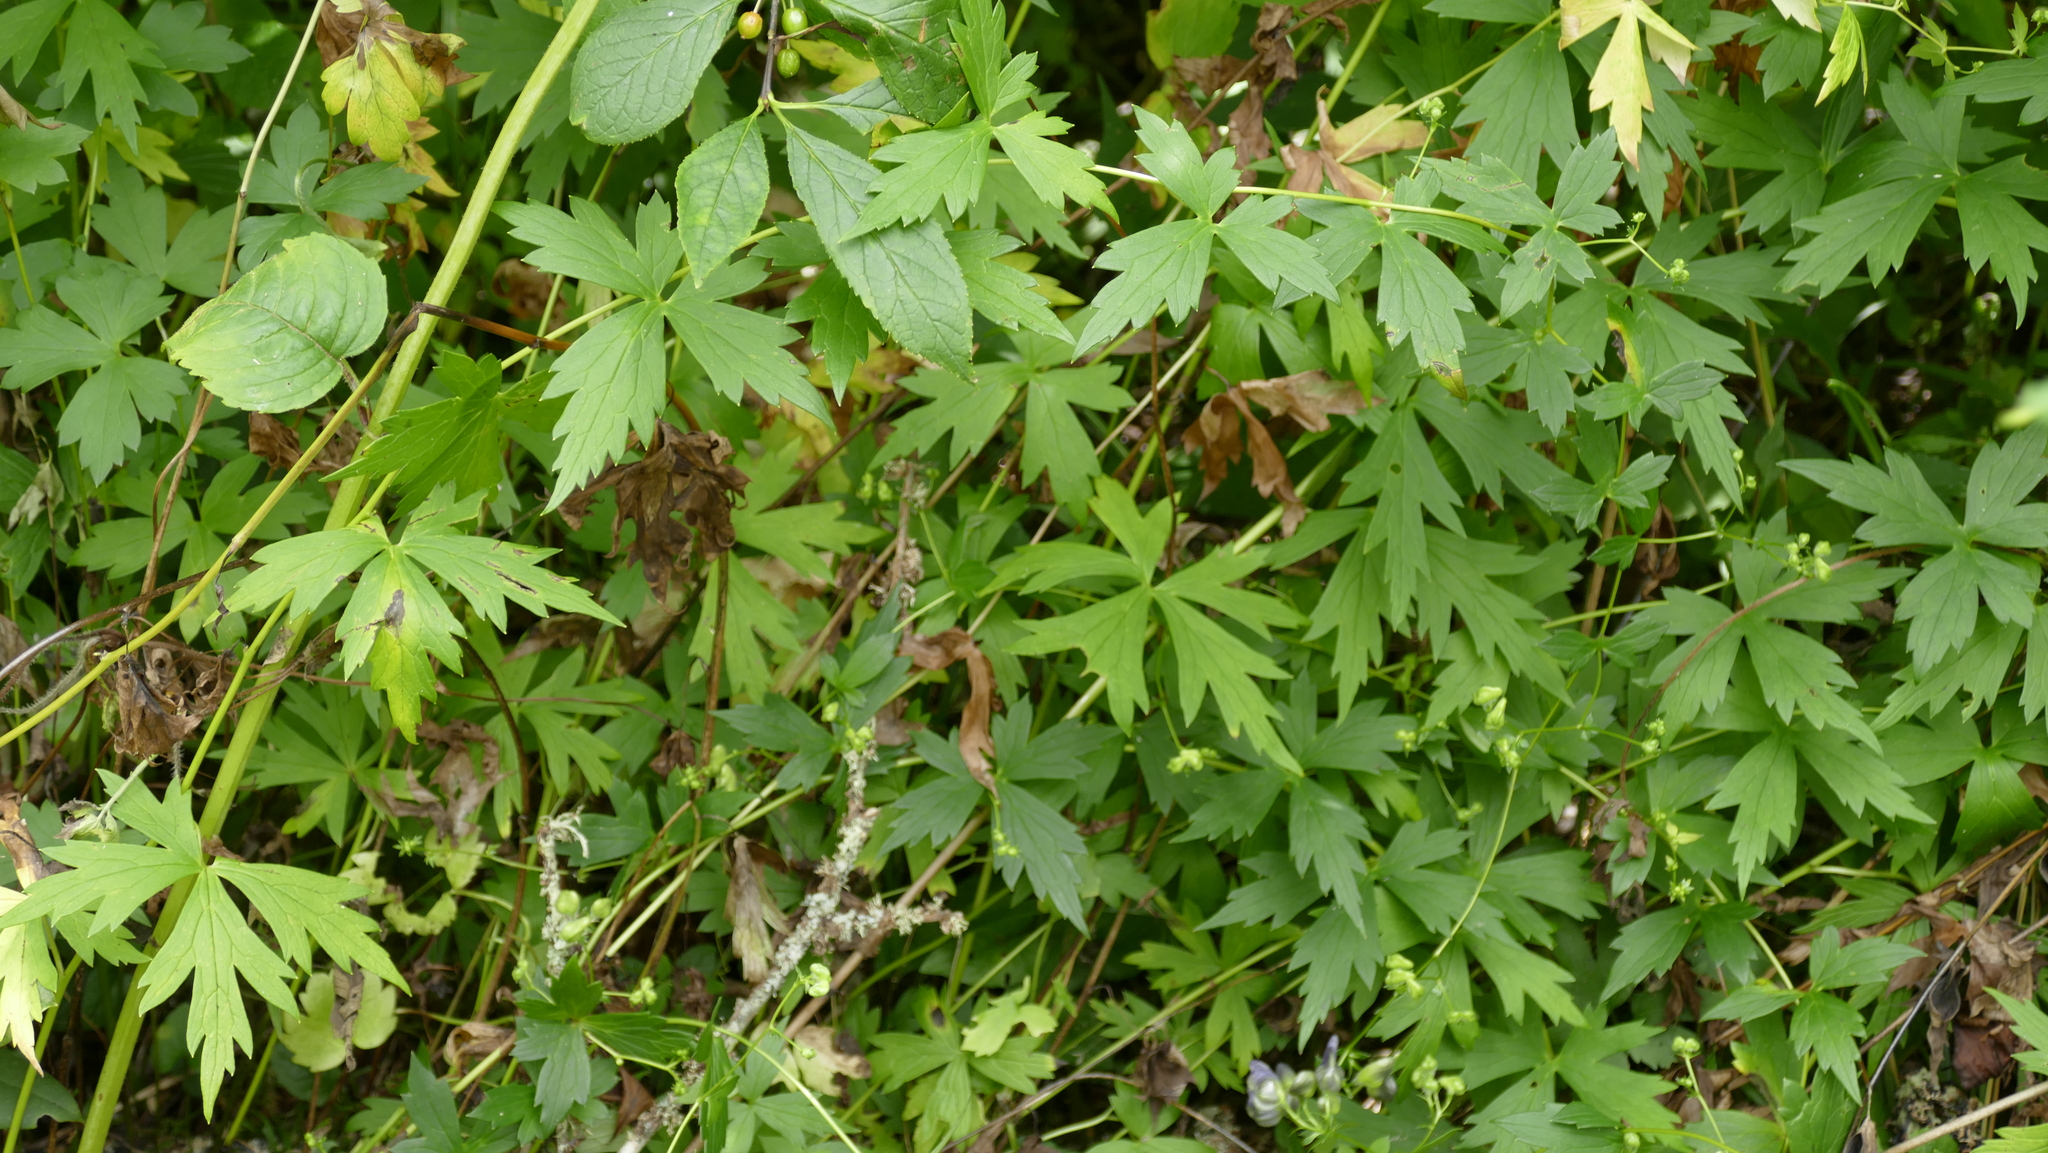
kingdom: Plantae
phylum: Tracheophyta
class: Magnoliopsida
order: Ranunculales
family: Ranunculaceae
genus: Aconitum
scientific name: Aconitum uncinatum
